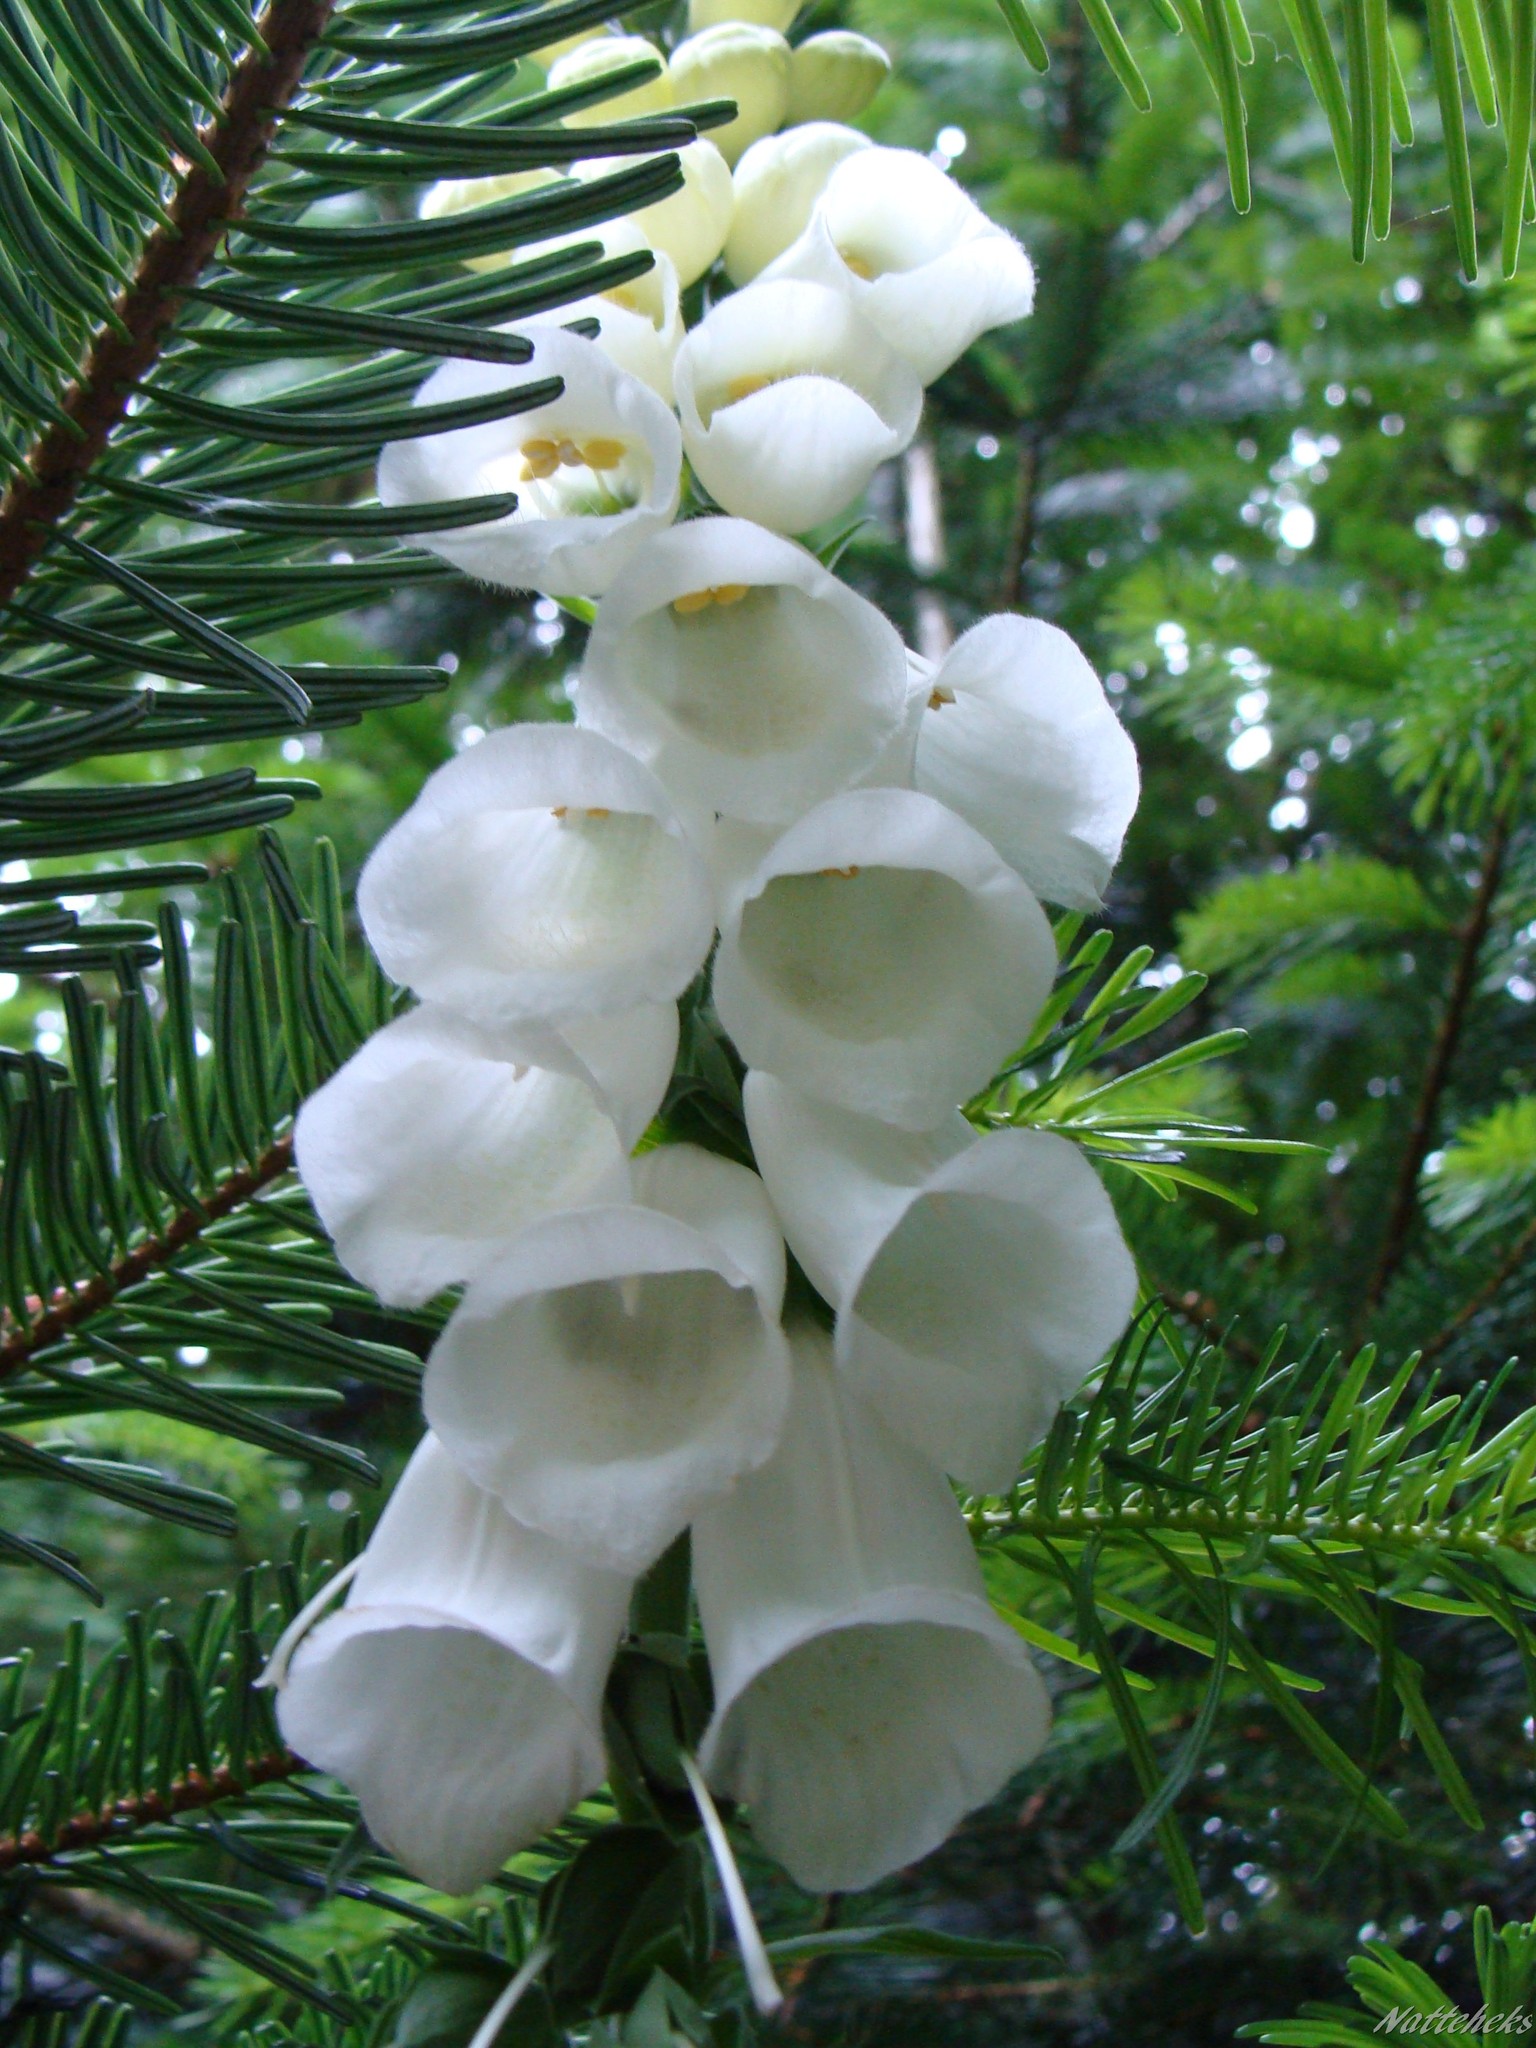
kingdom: Plantae
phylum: Tracheophyta
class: Magnoliopsida
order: Lamiales
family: Plantaginaceae
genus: Digitalis
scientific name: Digitalis purpurea
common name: Foxglove
